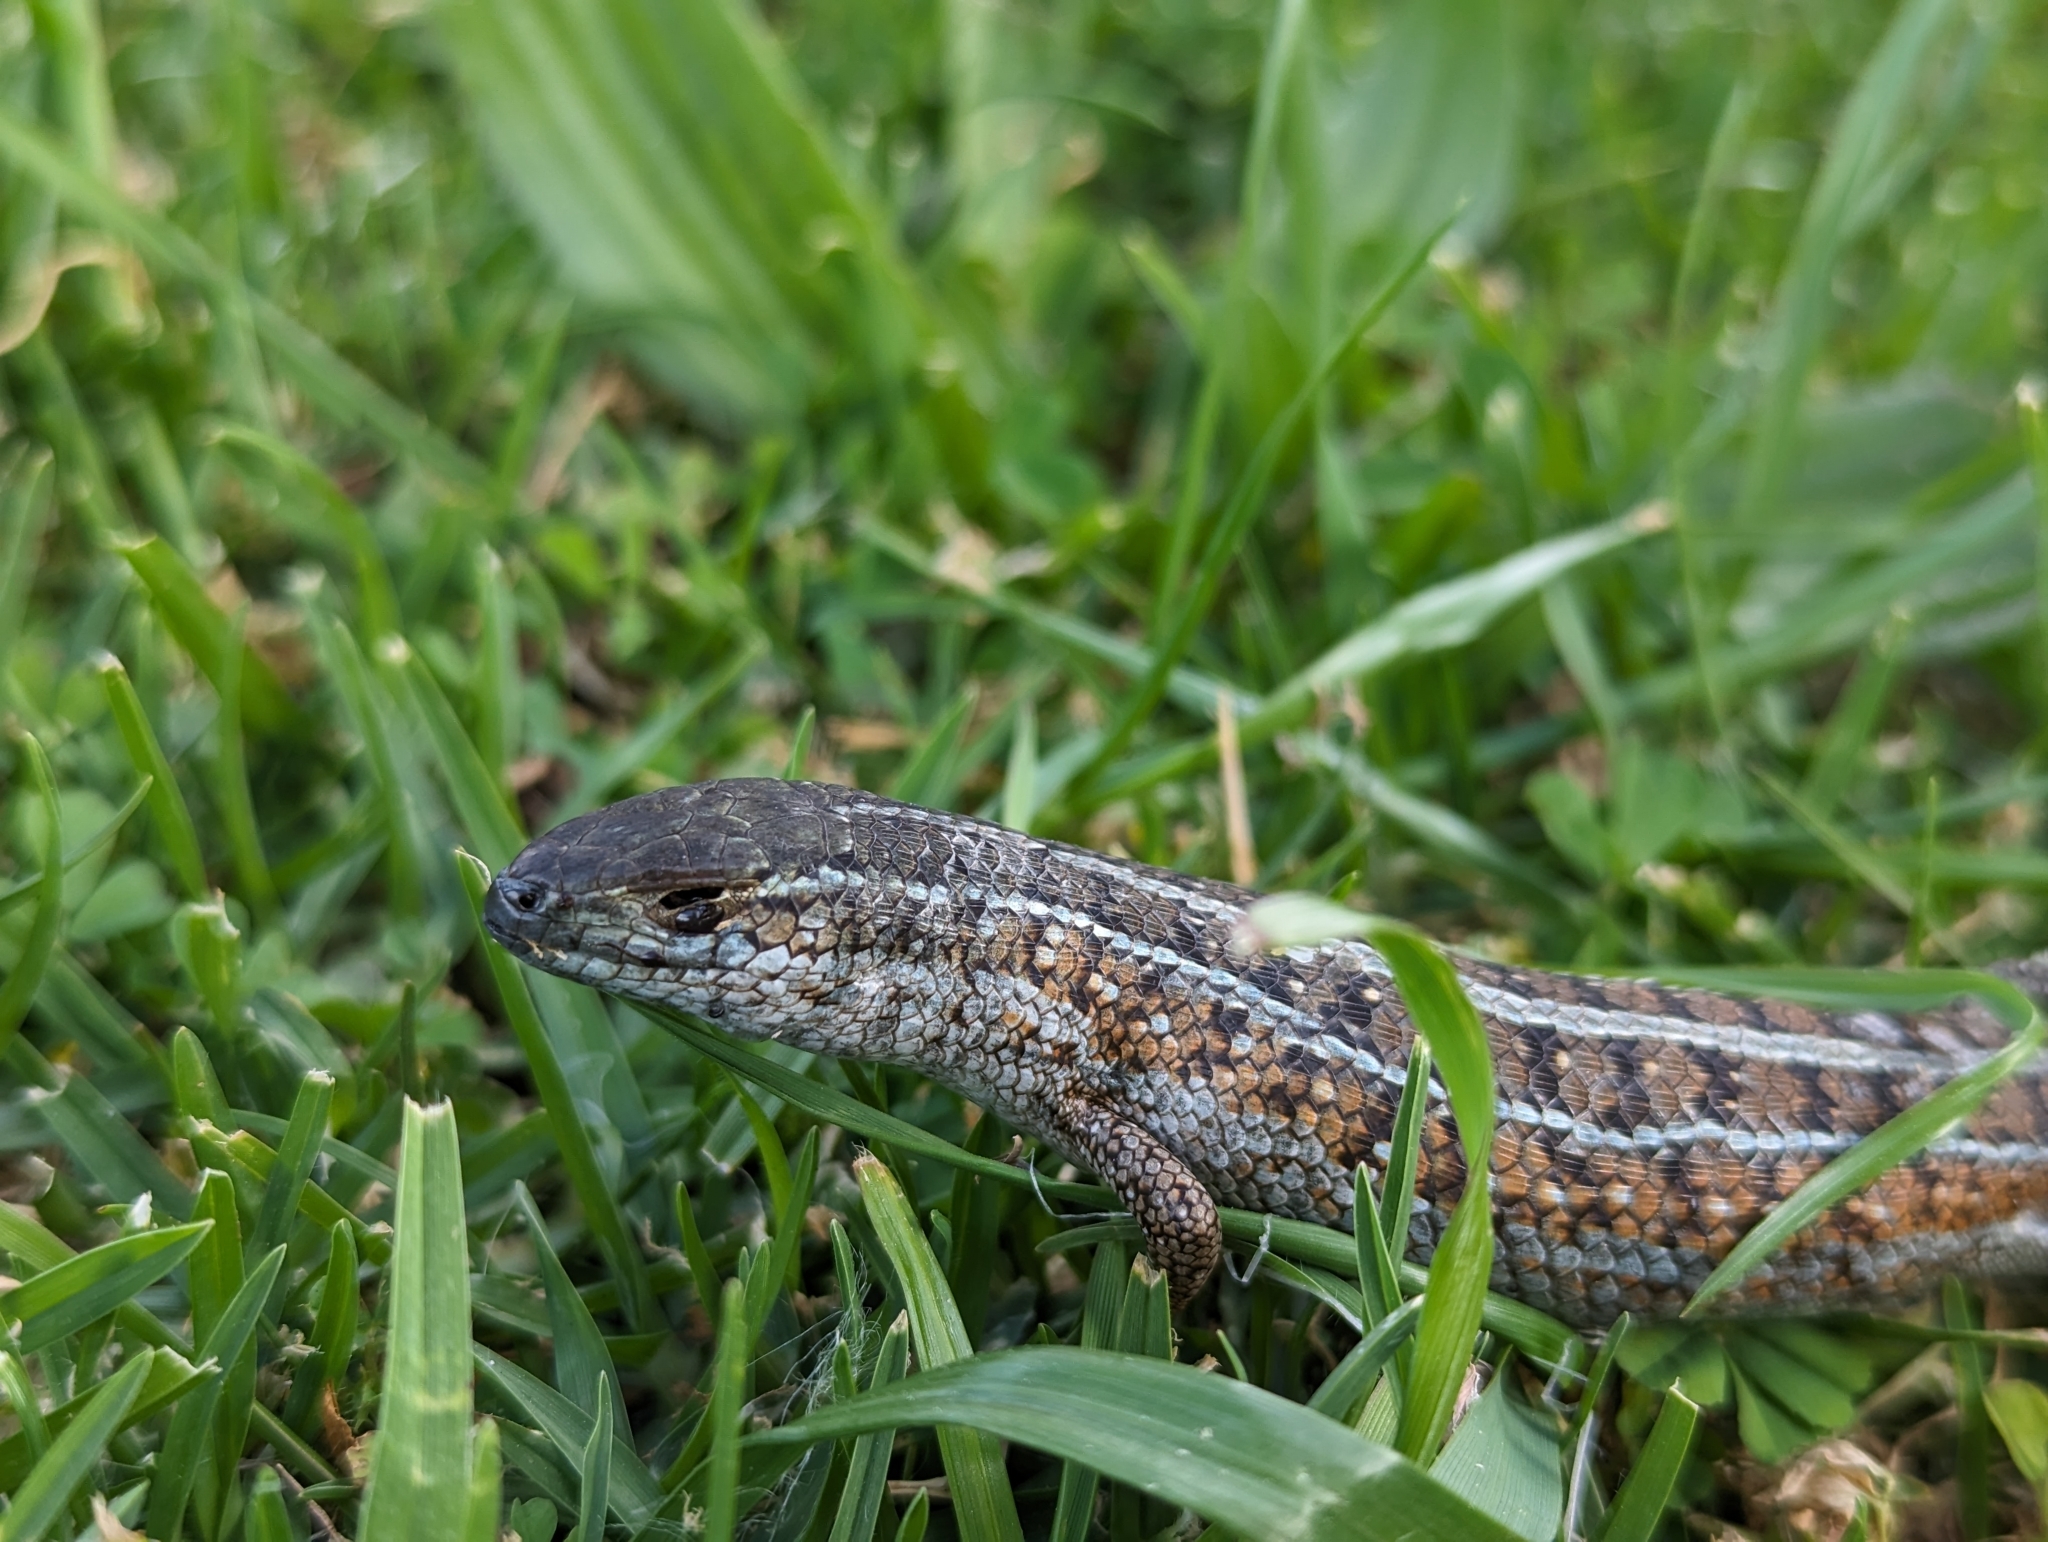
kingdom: Animalia
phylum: Chordata
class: Squamata
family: Scincidae
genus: Trachylepis
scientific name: Trachylepis capensis
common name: Cape skink
